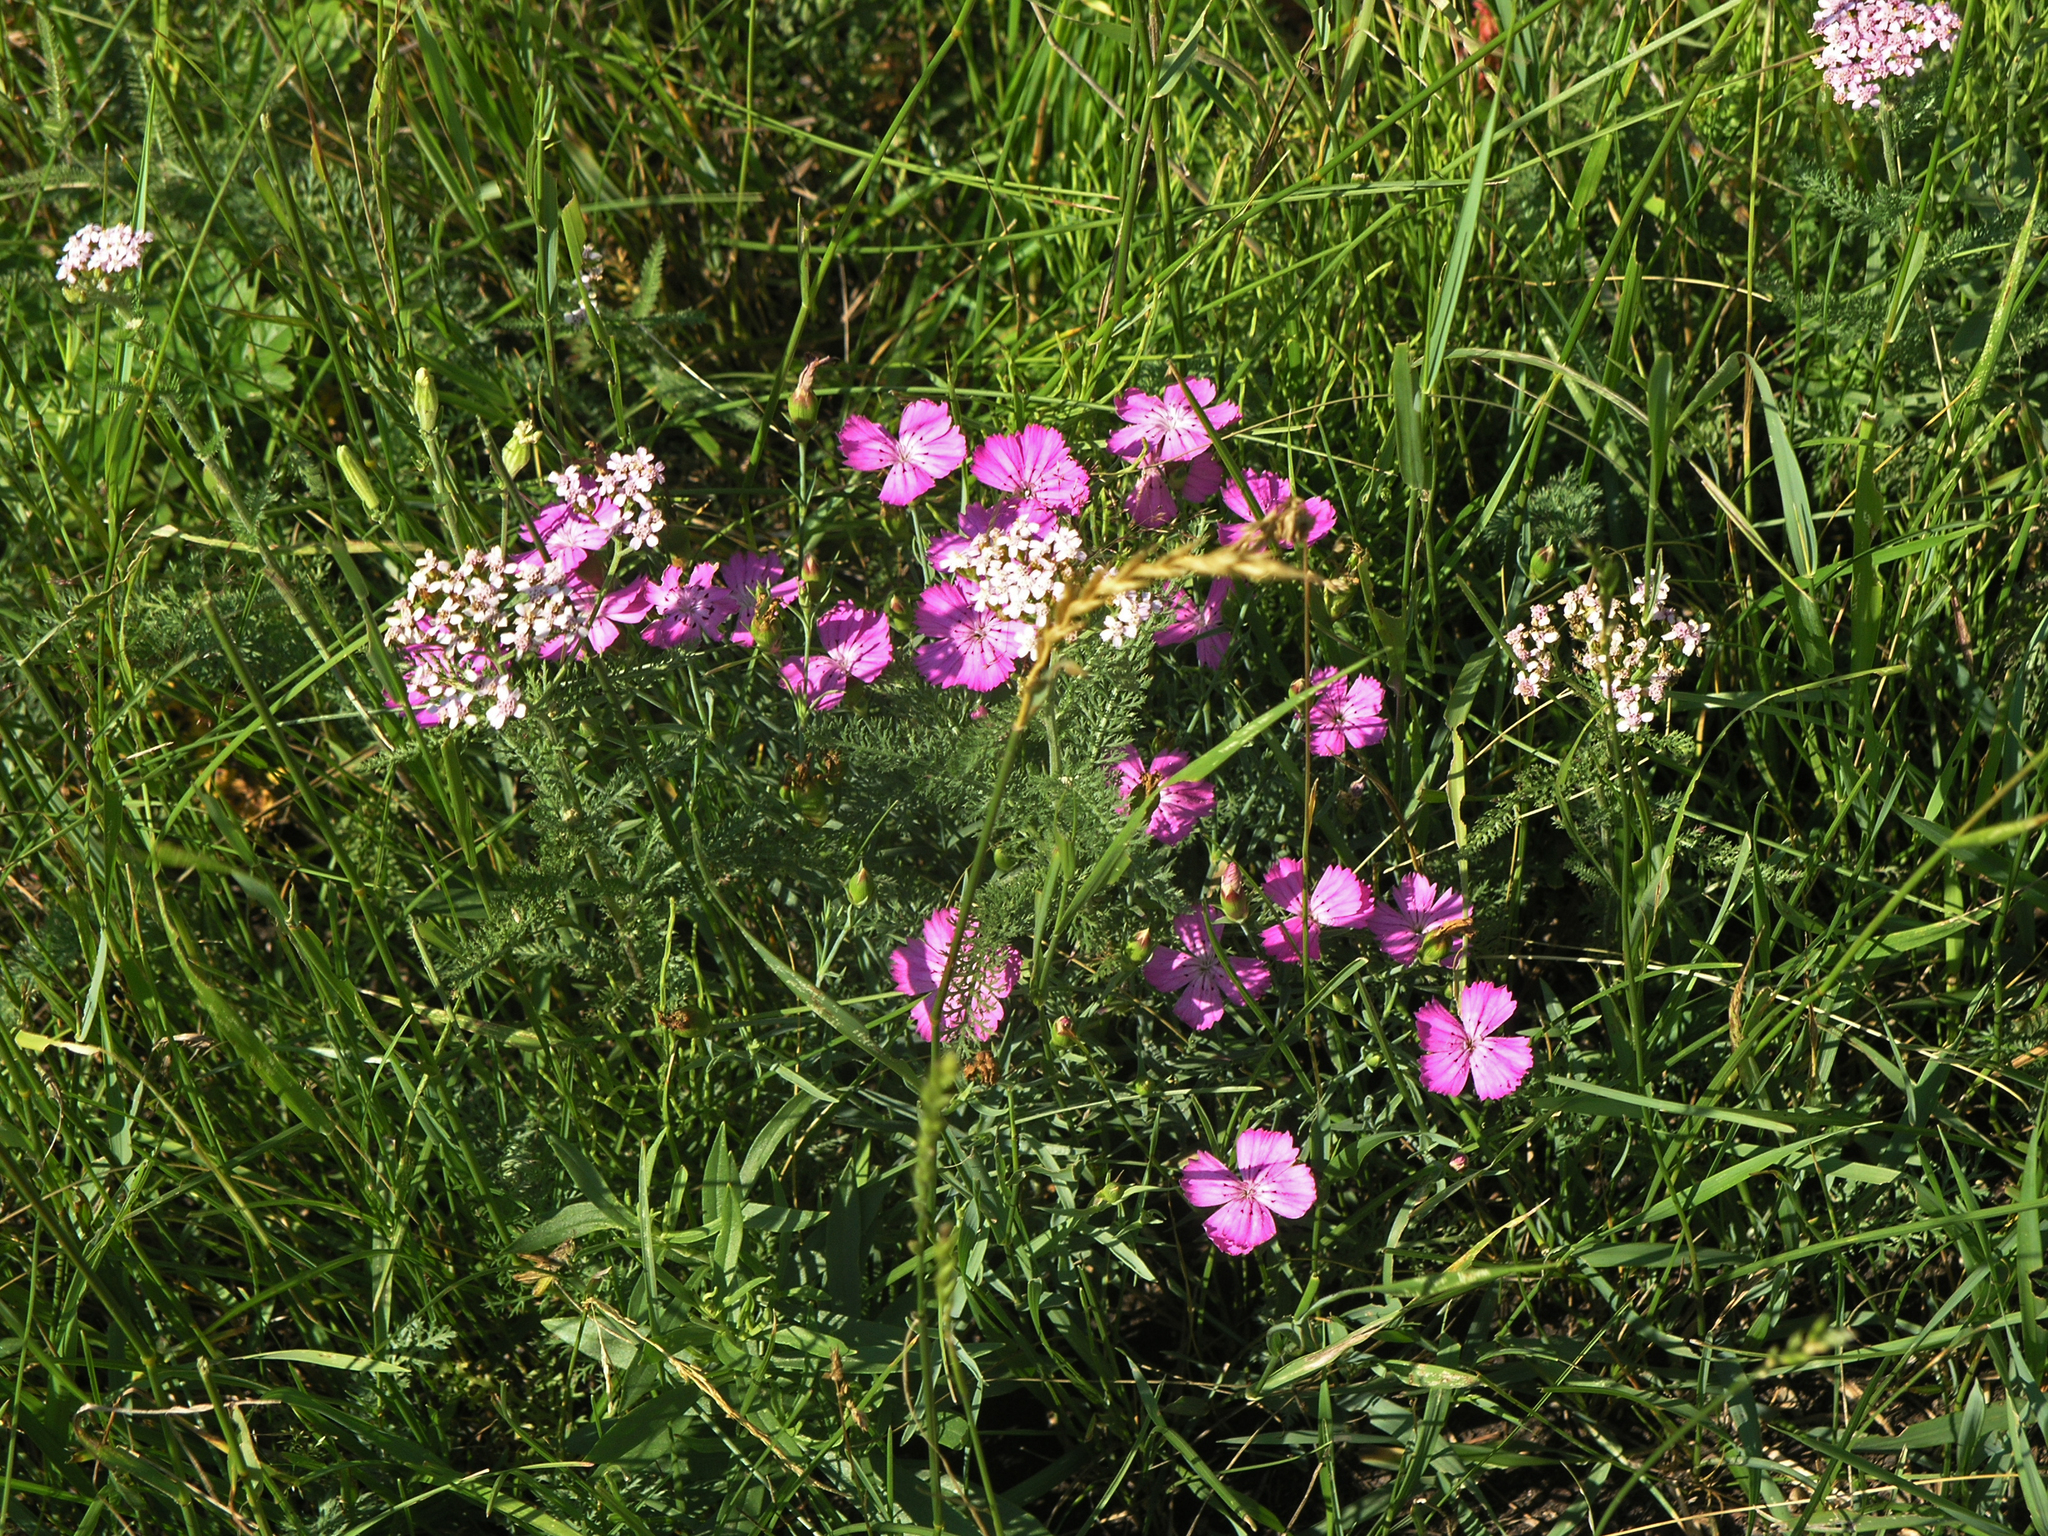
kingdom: Plantae
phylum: Tracheophyta
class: Magnoliopsida
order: Caryophyllales
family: Caryophyllaceae
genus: Dianthus
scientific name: Dianthus chinensis
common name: Rainbow pink
